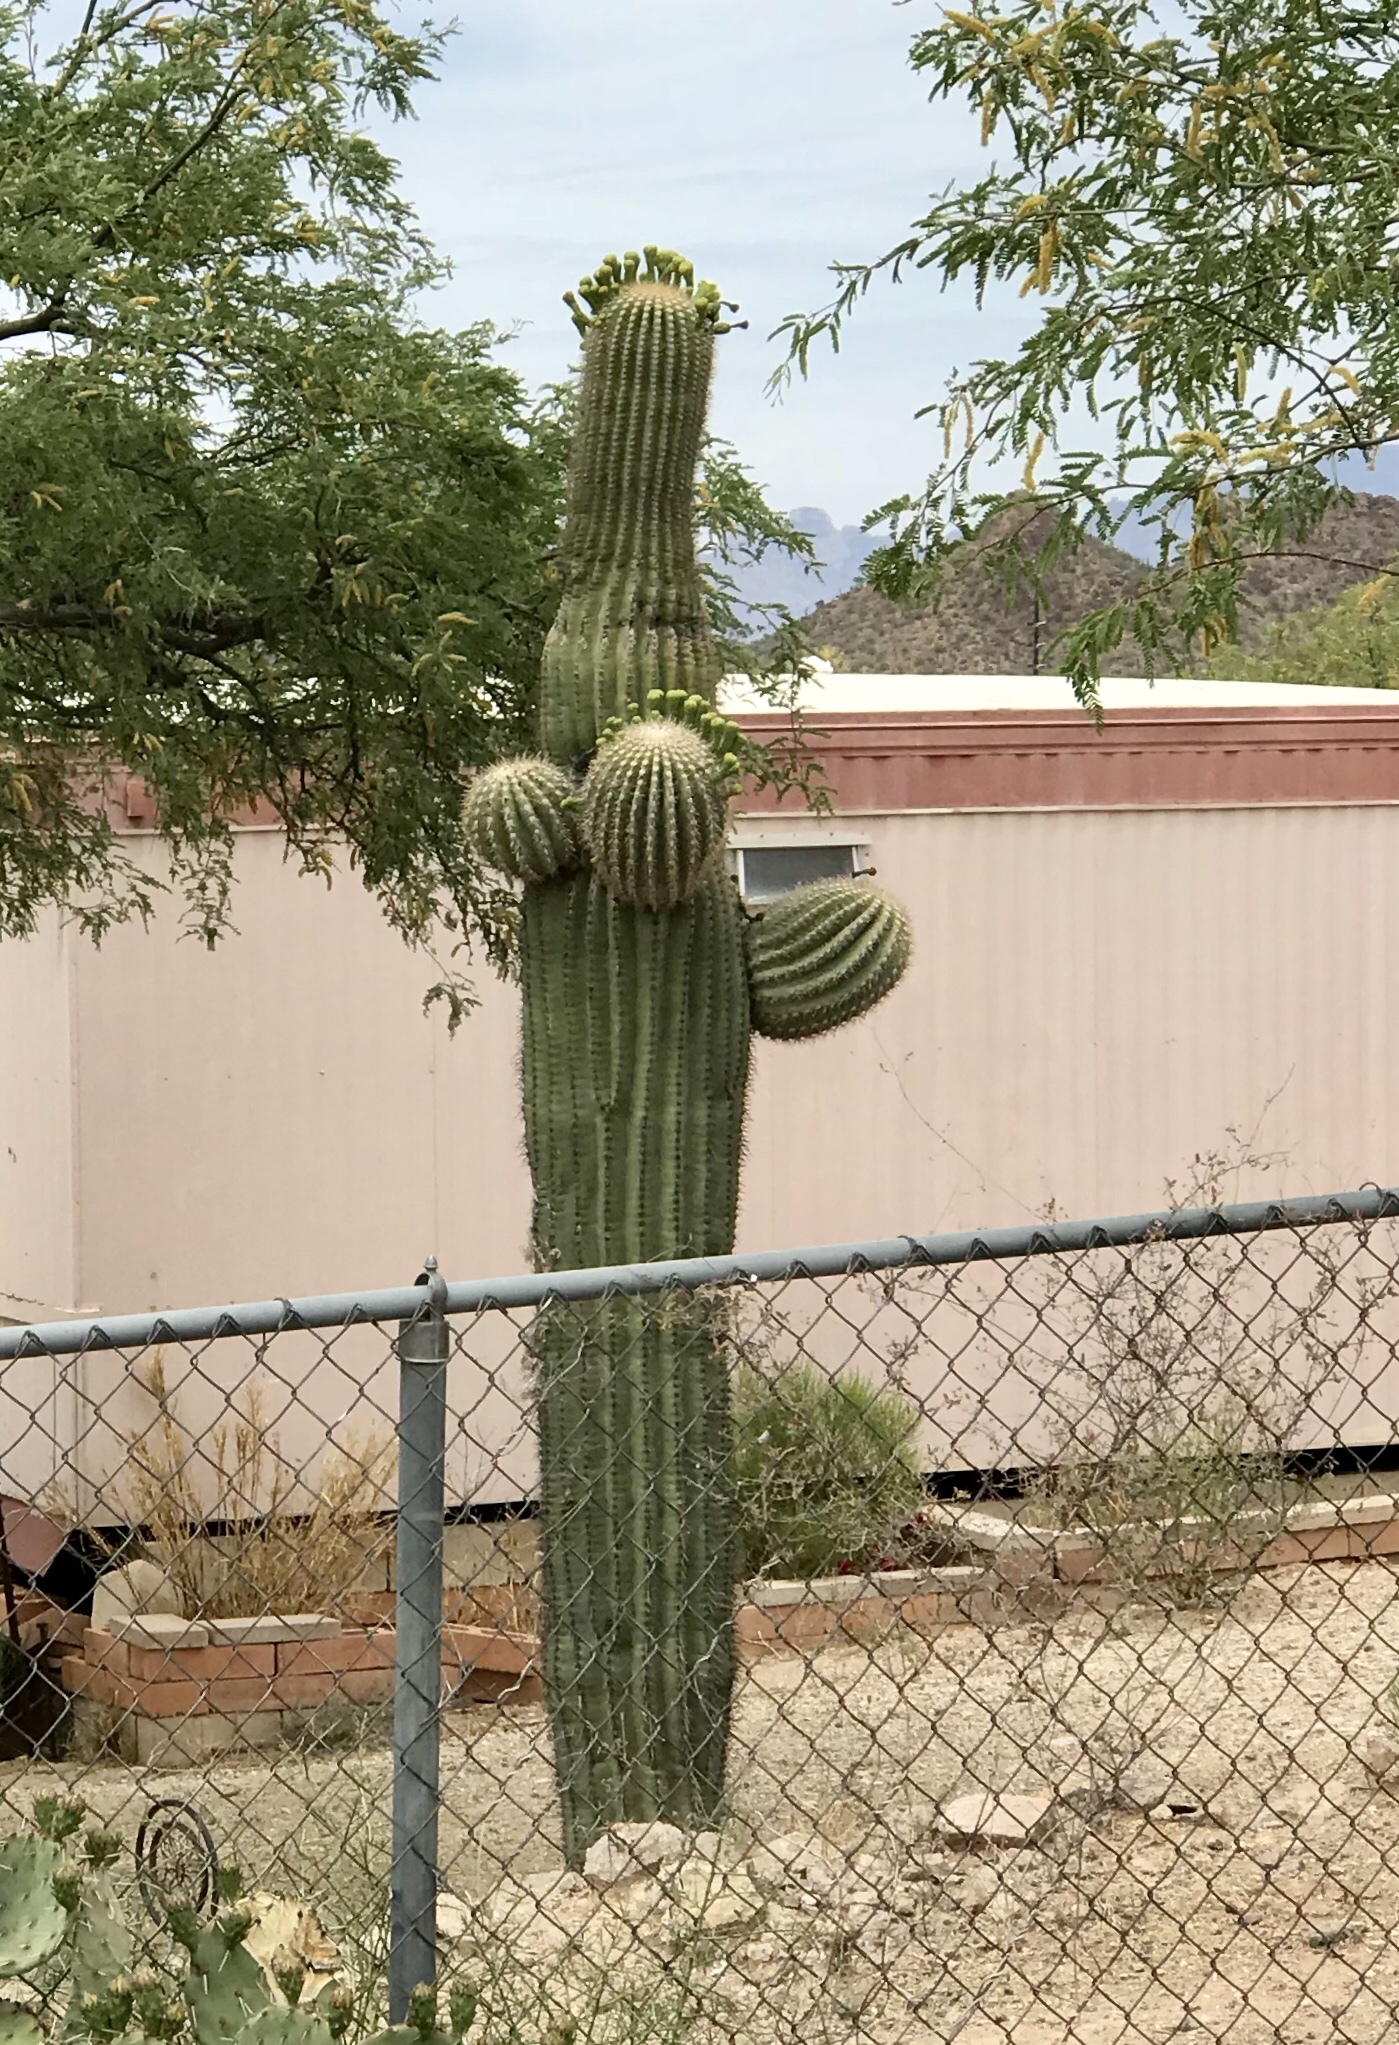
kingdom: Plantae
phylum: Tracheophyta
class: Magnoliopsida
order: Caryophyllales
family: Cactaceae
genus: Carnegiea
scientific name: Carnegiea gigantea
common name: Saguaro
